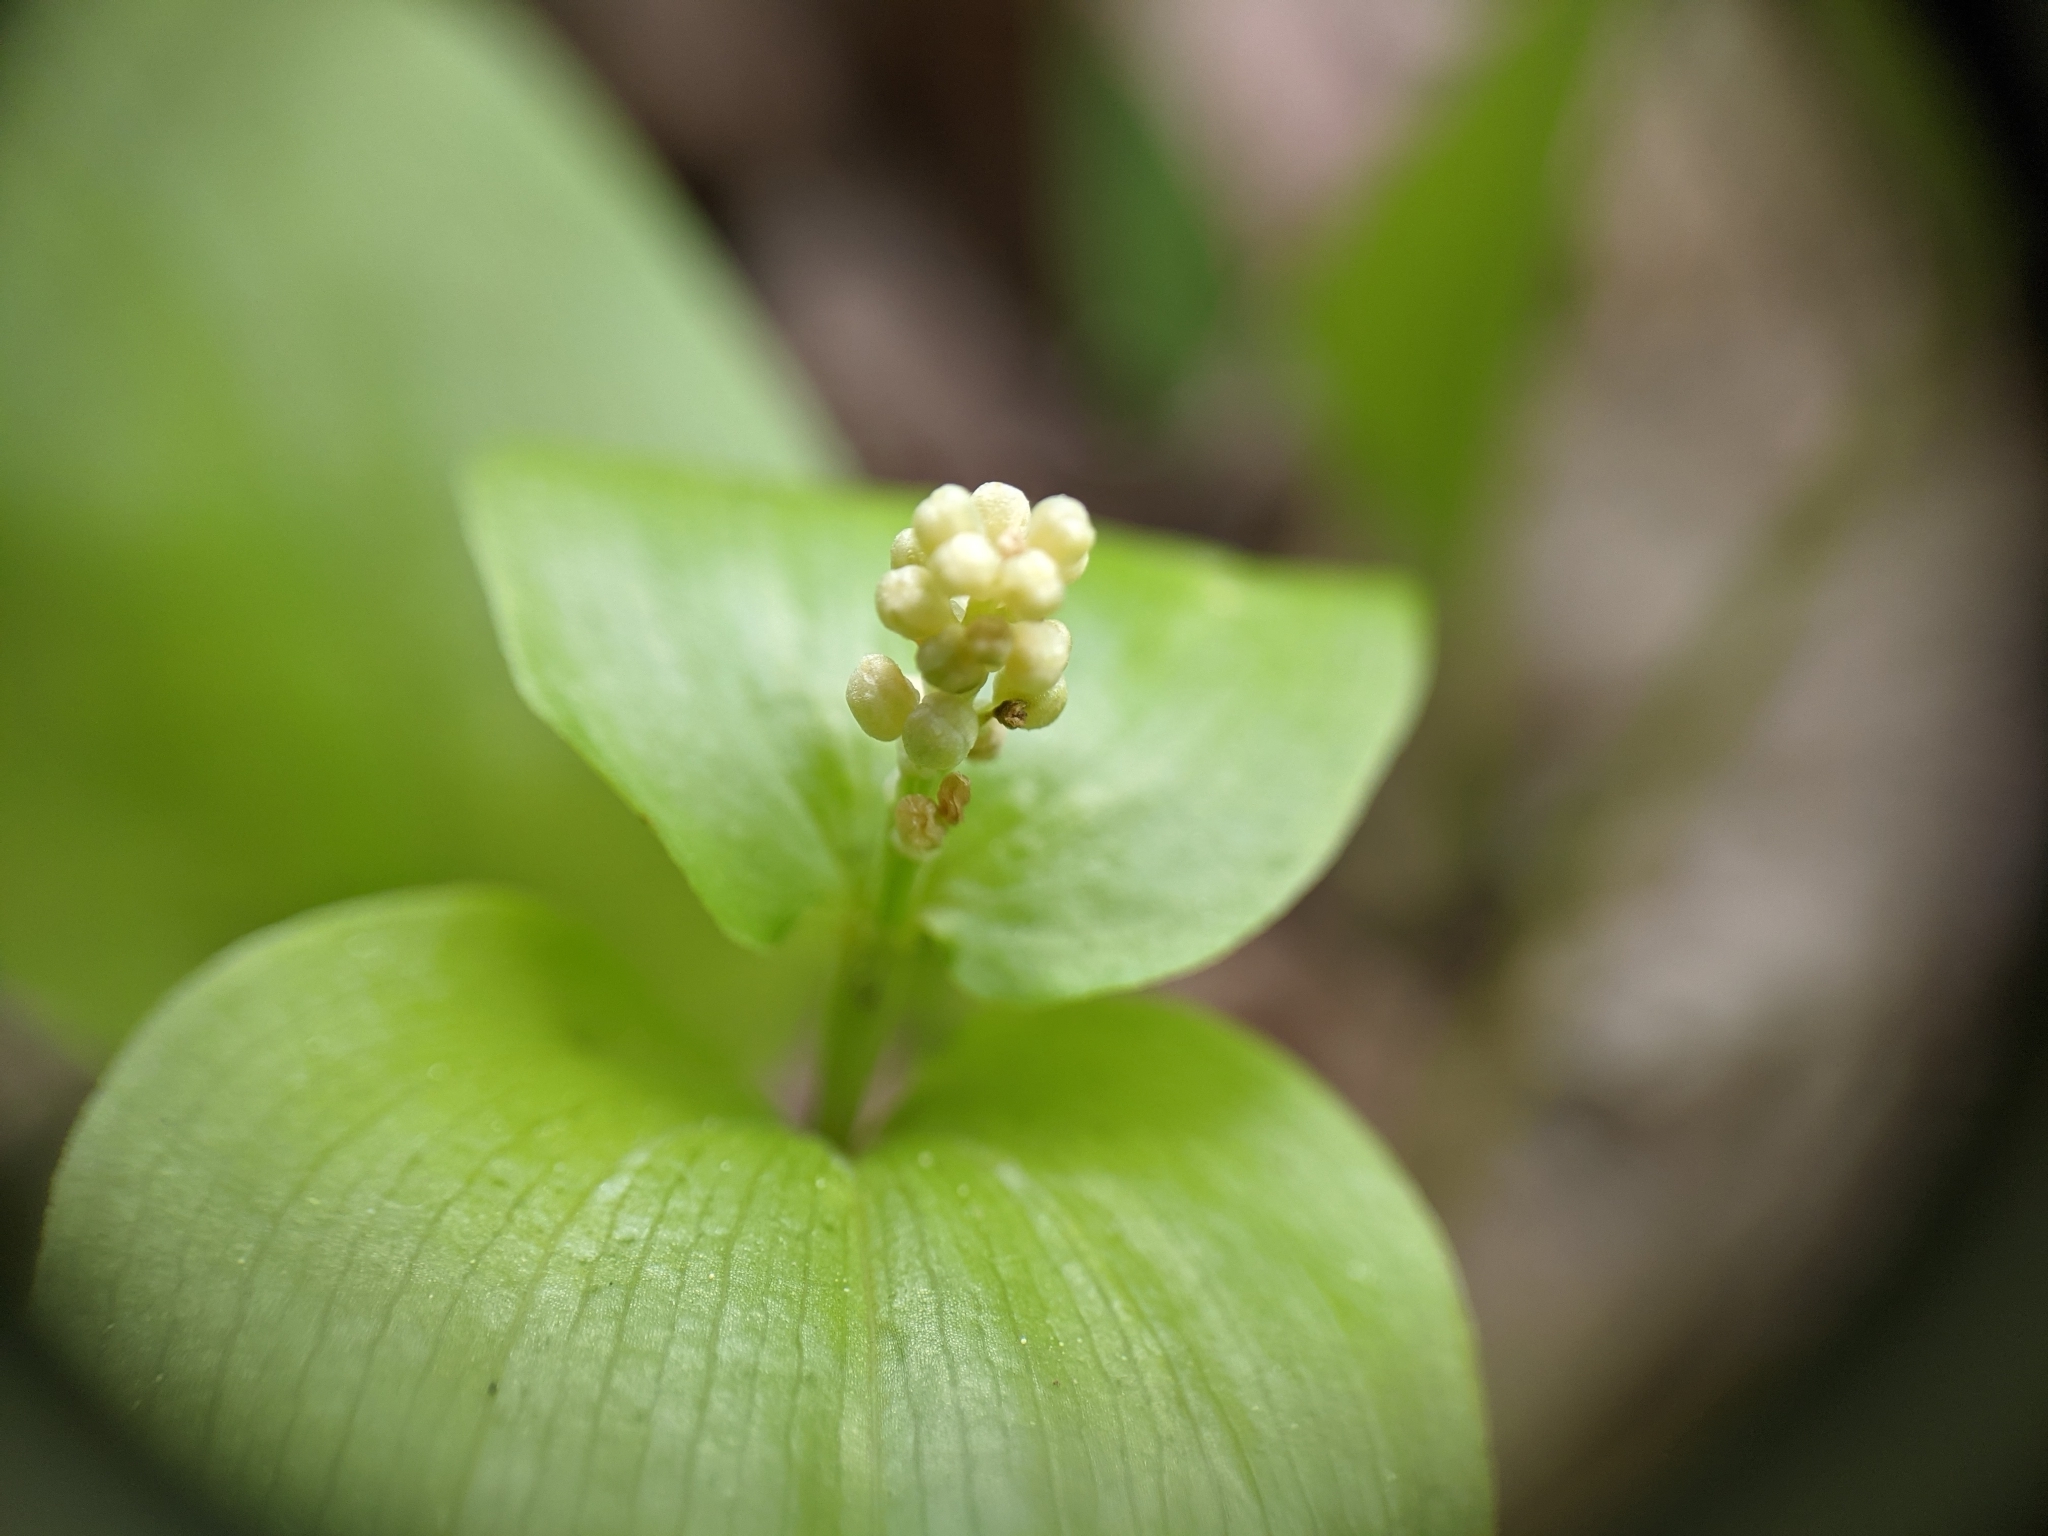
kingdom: Plantae
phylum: Tracheophyta
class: Liliopsida
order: Asparagales
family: Asparagaceae
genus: Maianthemum
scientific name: Maianthemum canadense
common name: False lily-of-the-valley
